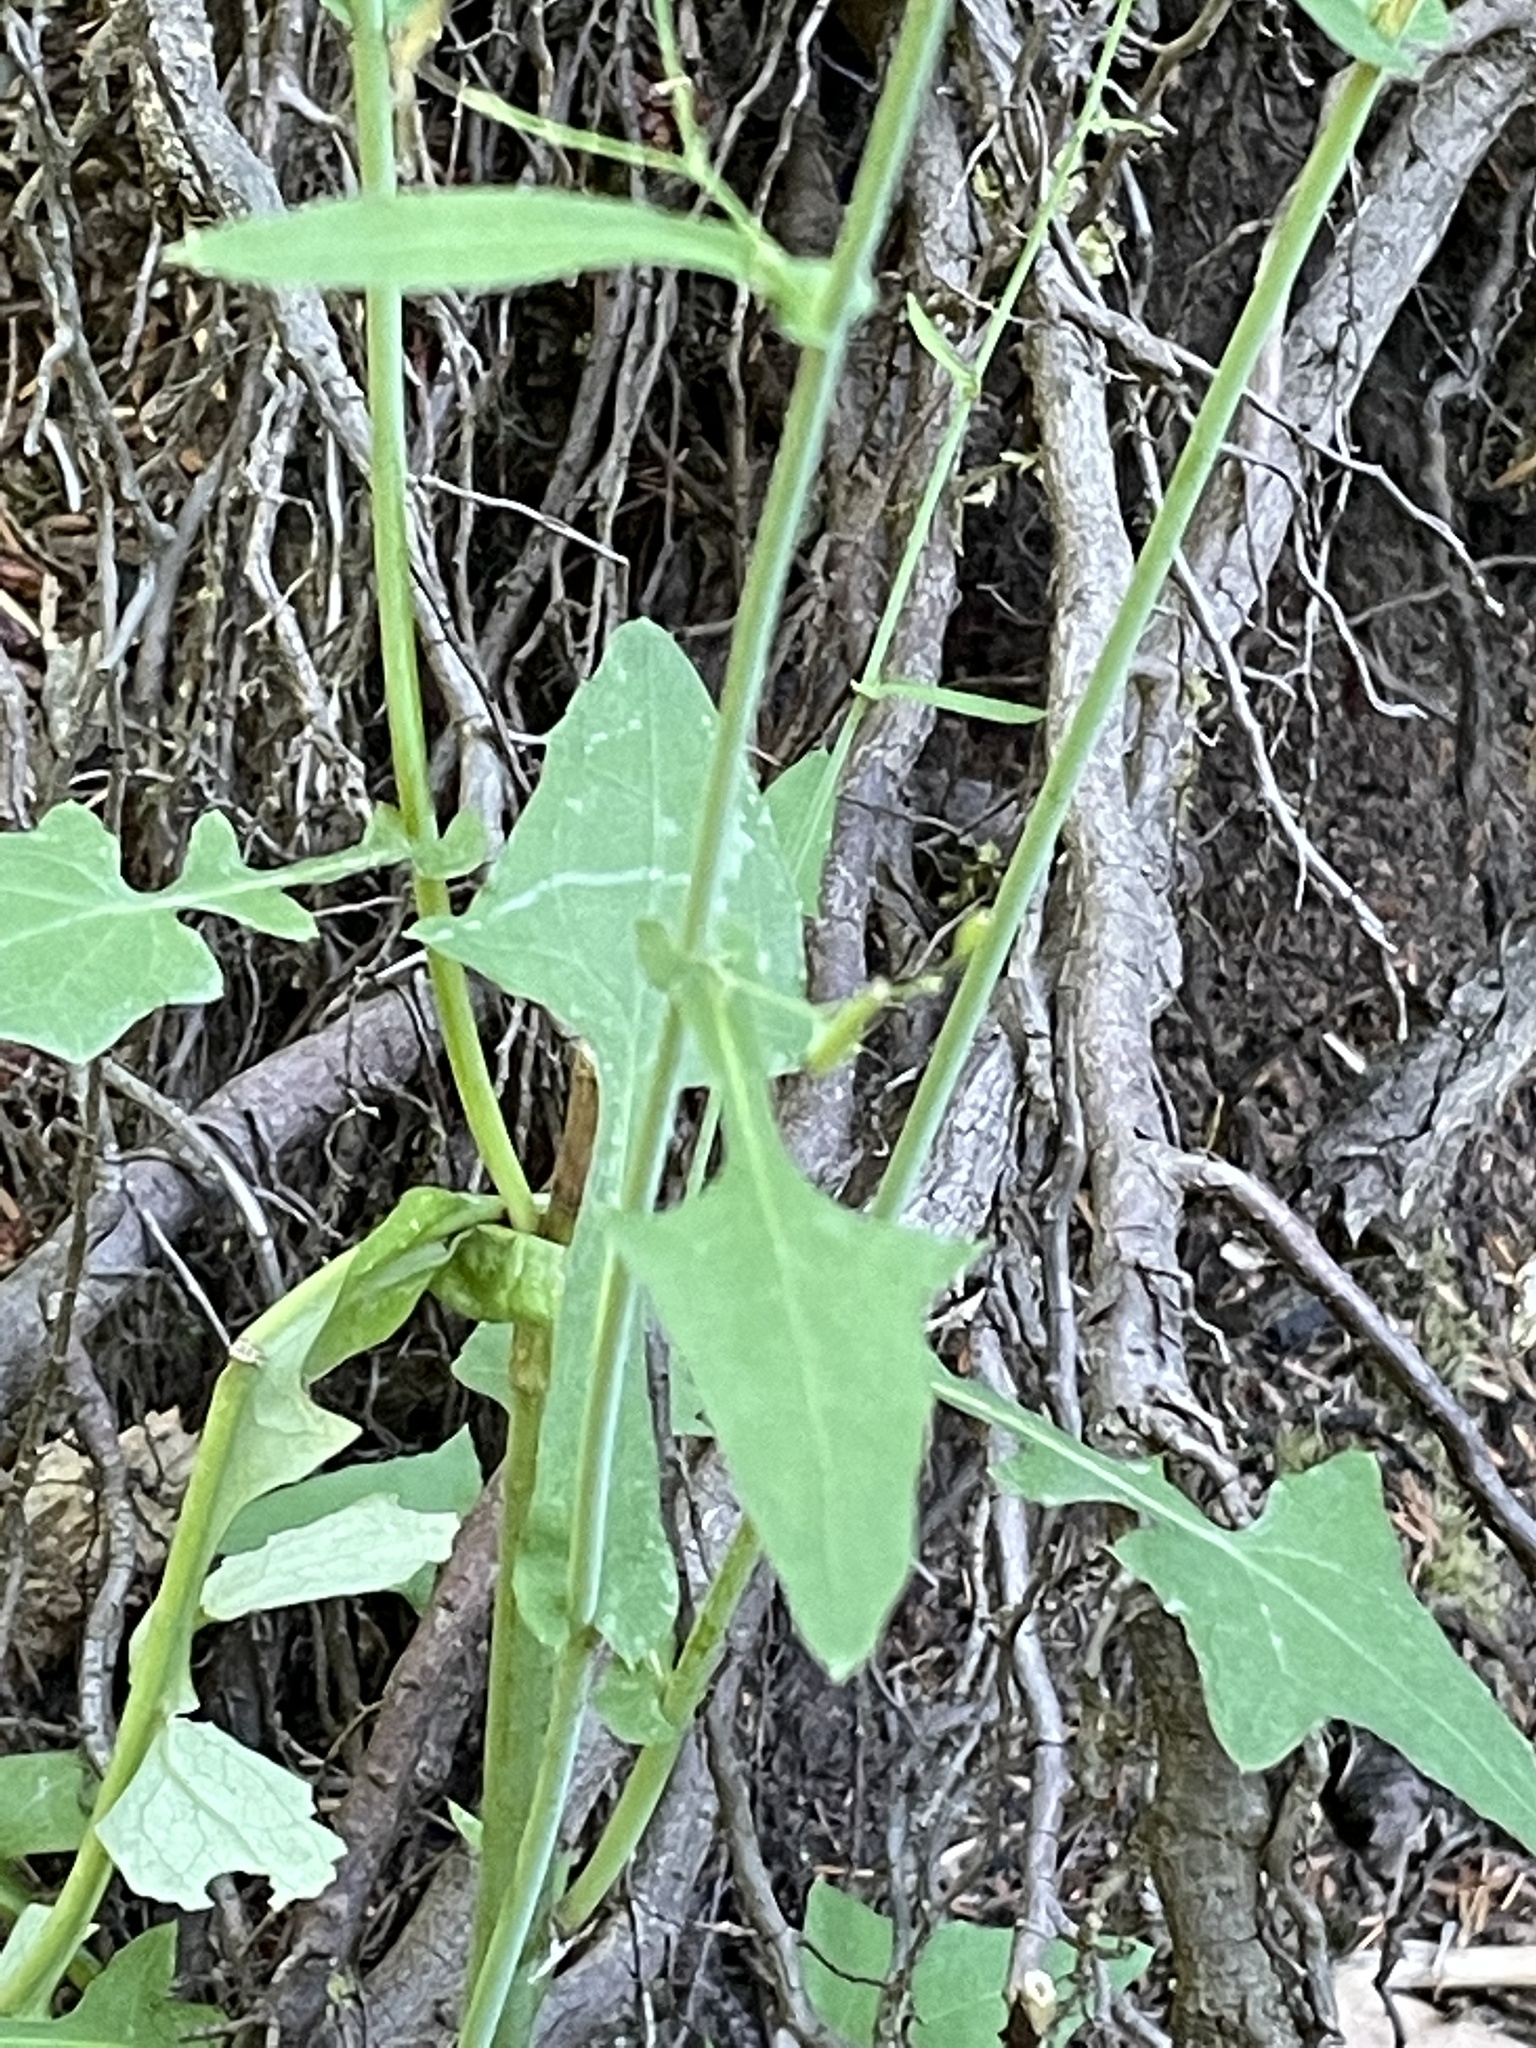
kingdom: Plantae
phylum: Tracheophyta
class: Magnoliopsida
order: Asterales
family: Asteraceae
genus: Mycelis
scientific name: Mycelis muralis
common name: Wall lettuce
